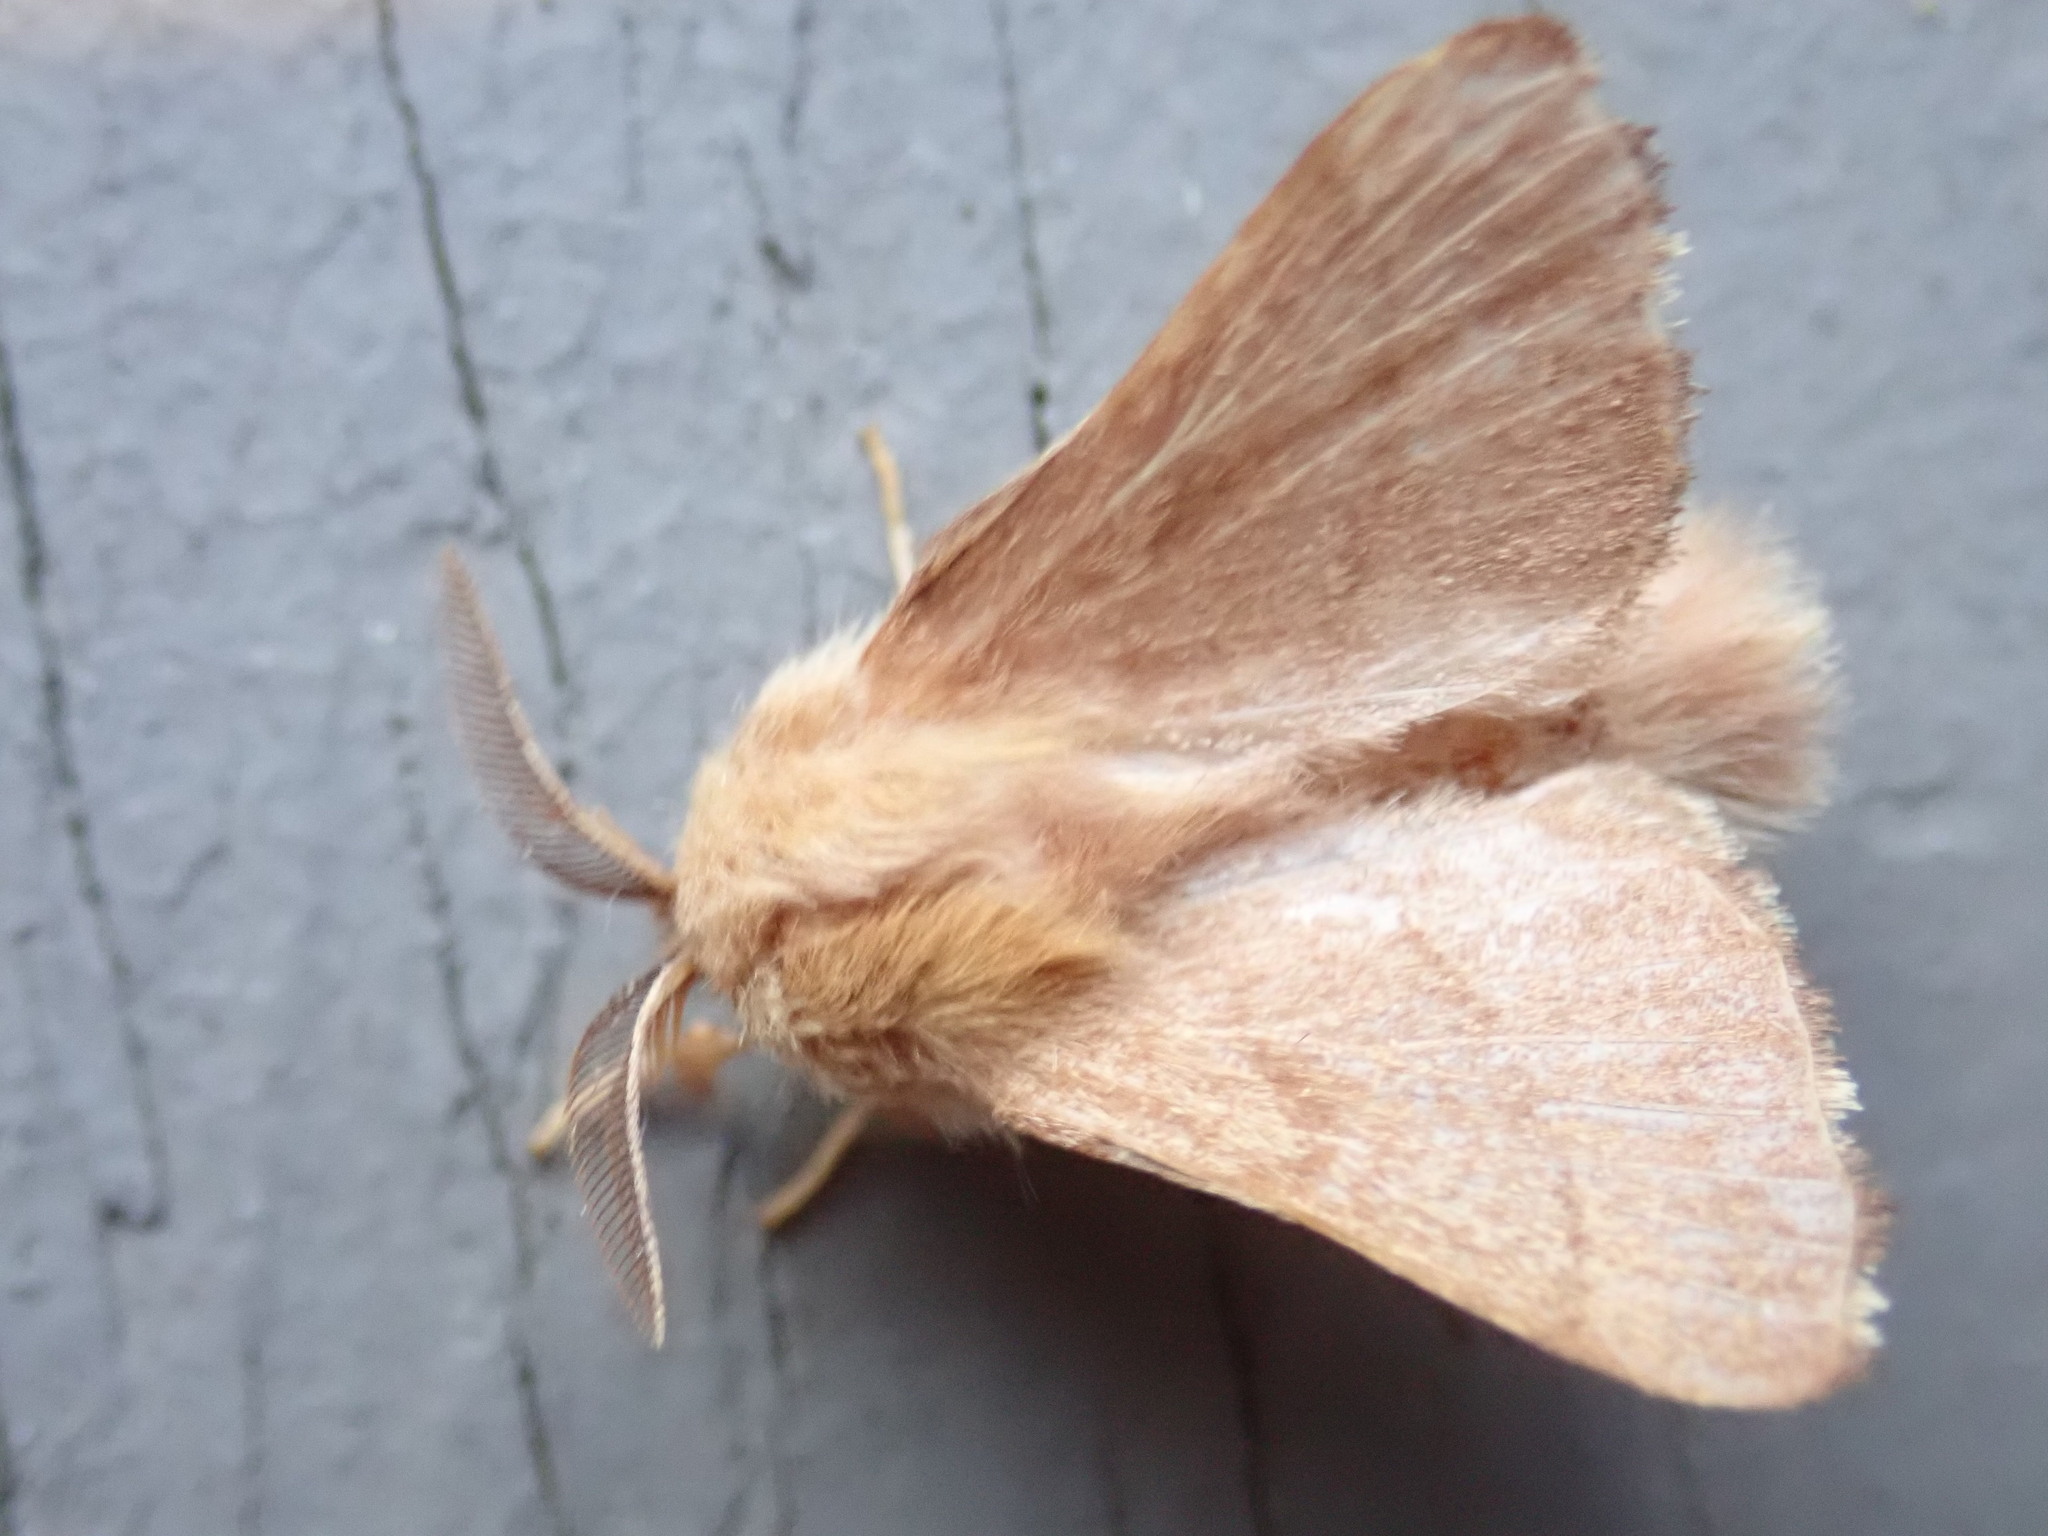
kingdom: Animalia
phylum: Arthropoda
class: Insecta
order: Lepidoptera
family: Lasiocampidae
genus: Malacosoma
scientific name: Malacosoma disstria
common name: Forest tent caterpillar
